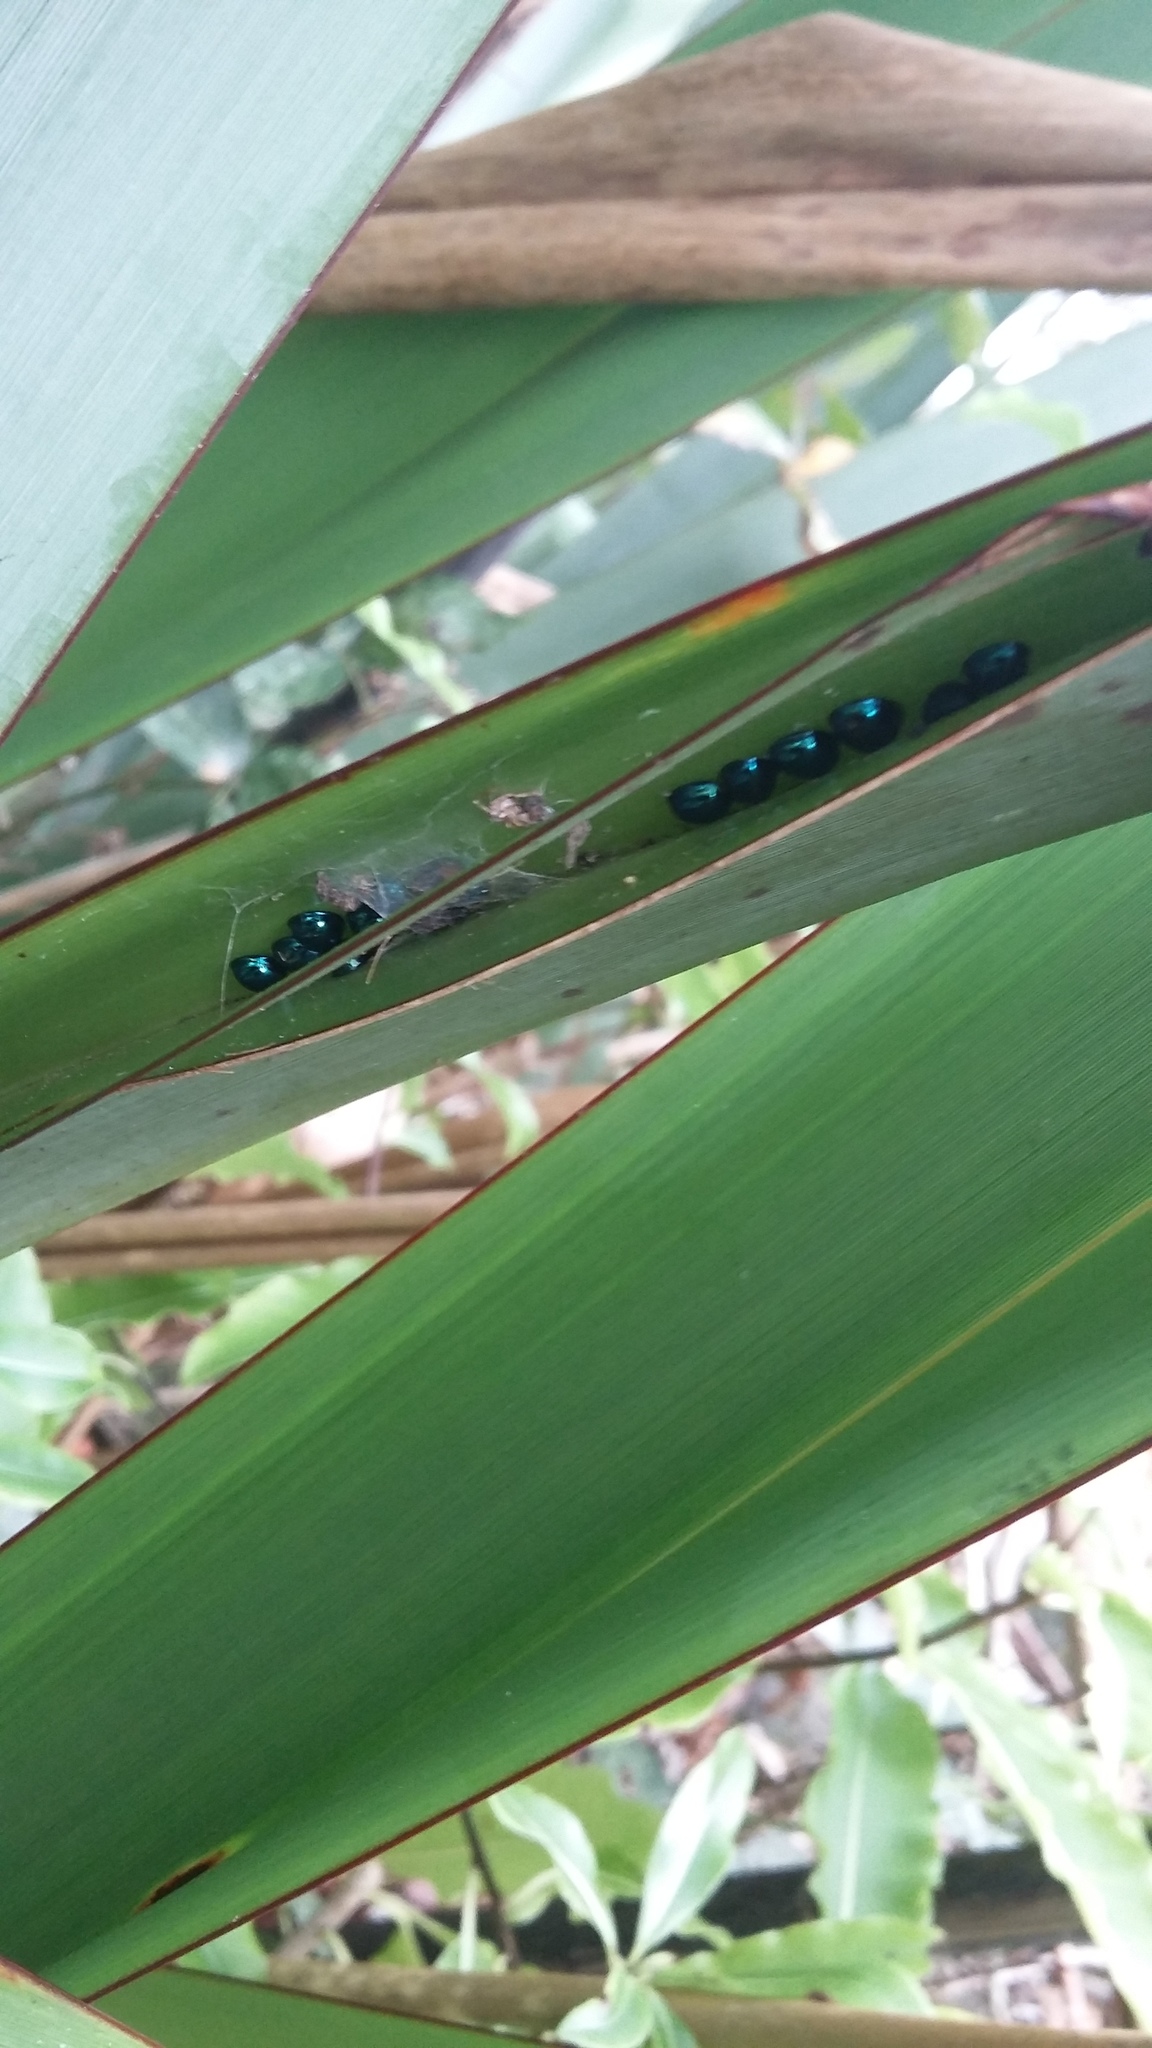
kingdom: Animalia
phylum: Arthropoda
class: Insecta
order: Coleoptera
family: Coccinellidae
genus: Halmus
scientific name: Halmus chalybeus
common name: Steel blue ladybird beetle
